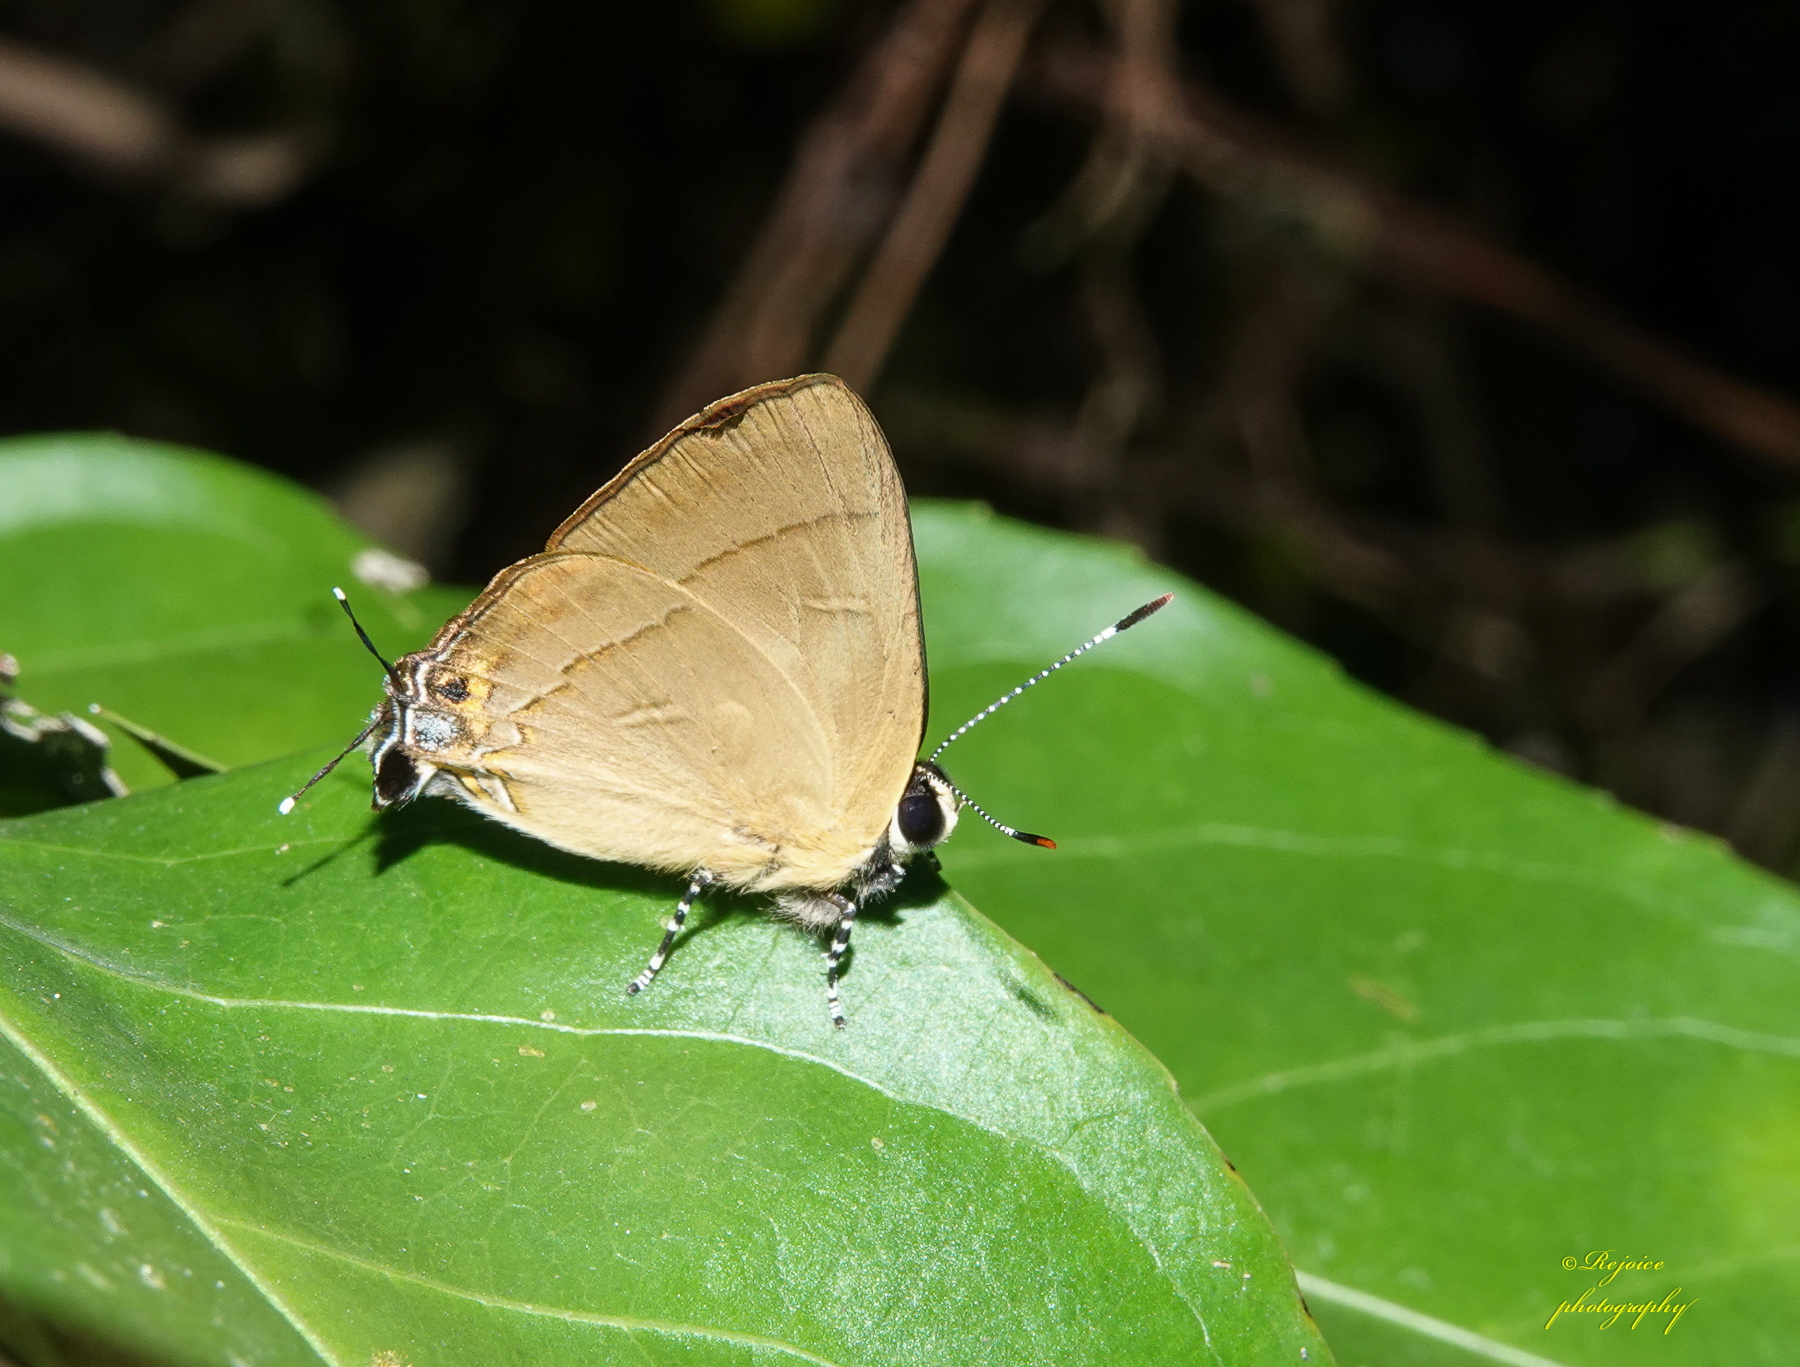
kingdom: Animalia
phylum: Arthropoda
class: Insecta
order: Lepidoptera
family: Lycaenidae
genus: Rapala
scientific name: Rapala manea
